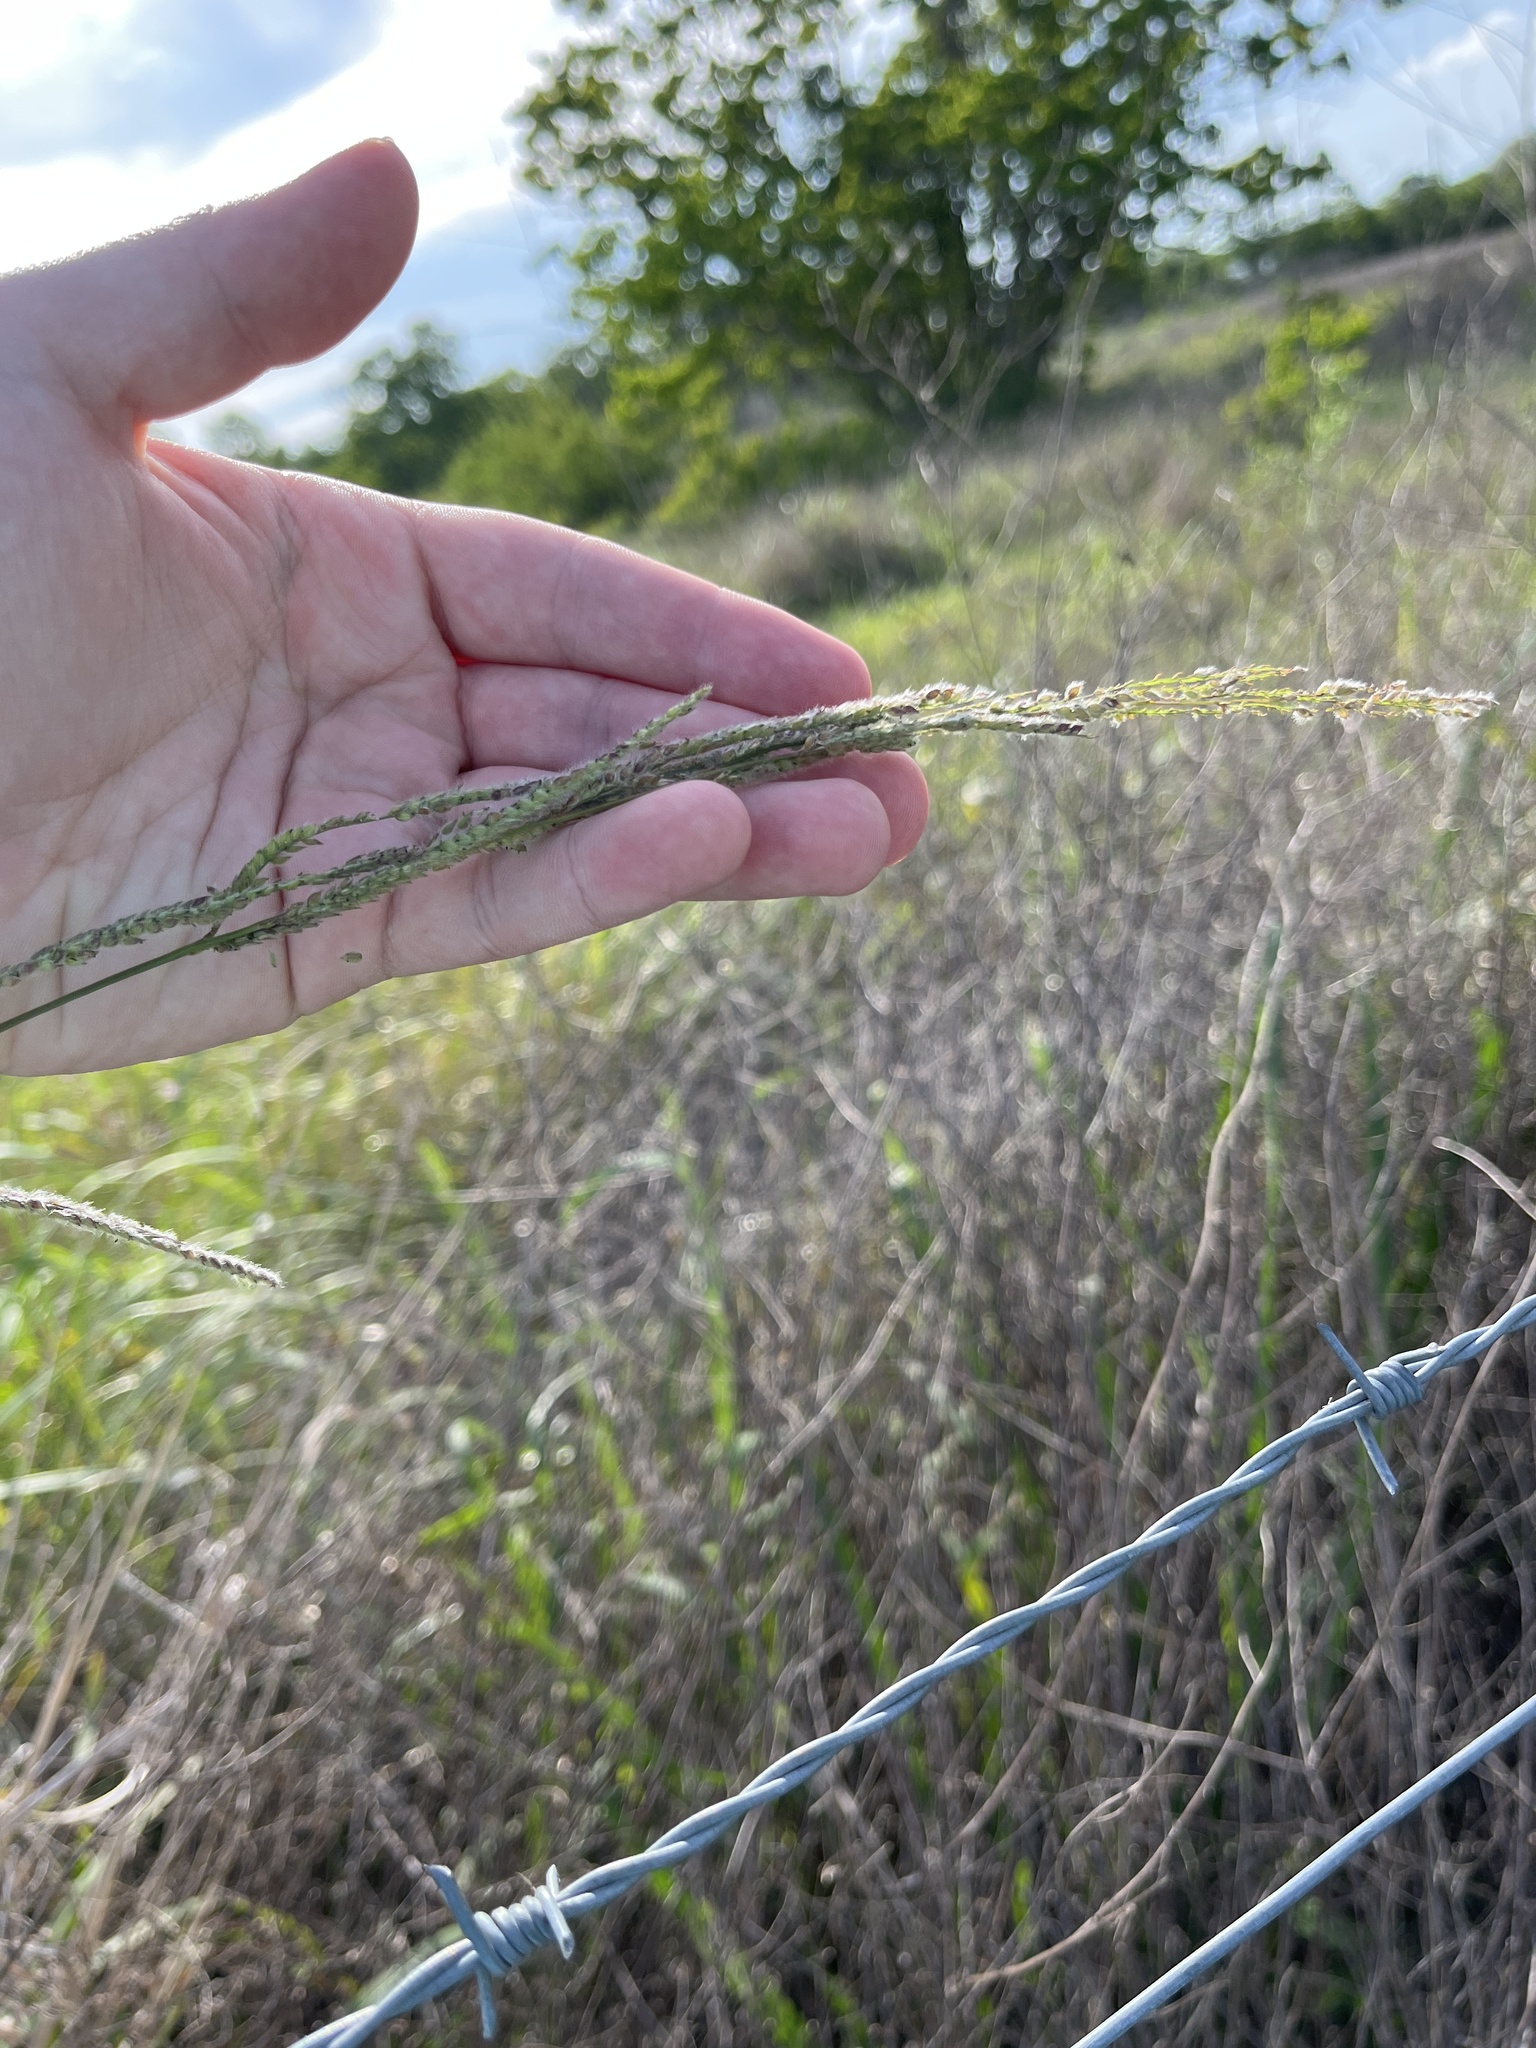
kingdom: Plantae
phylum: Tracheophyta
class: Liliopsida
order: Poales
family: Poaceae
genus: Paspalum
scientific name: Paspalum urvillei
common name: Vasey's grass
